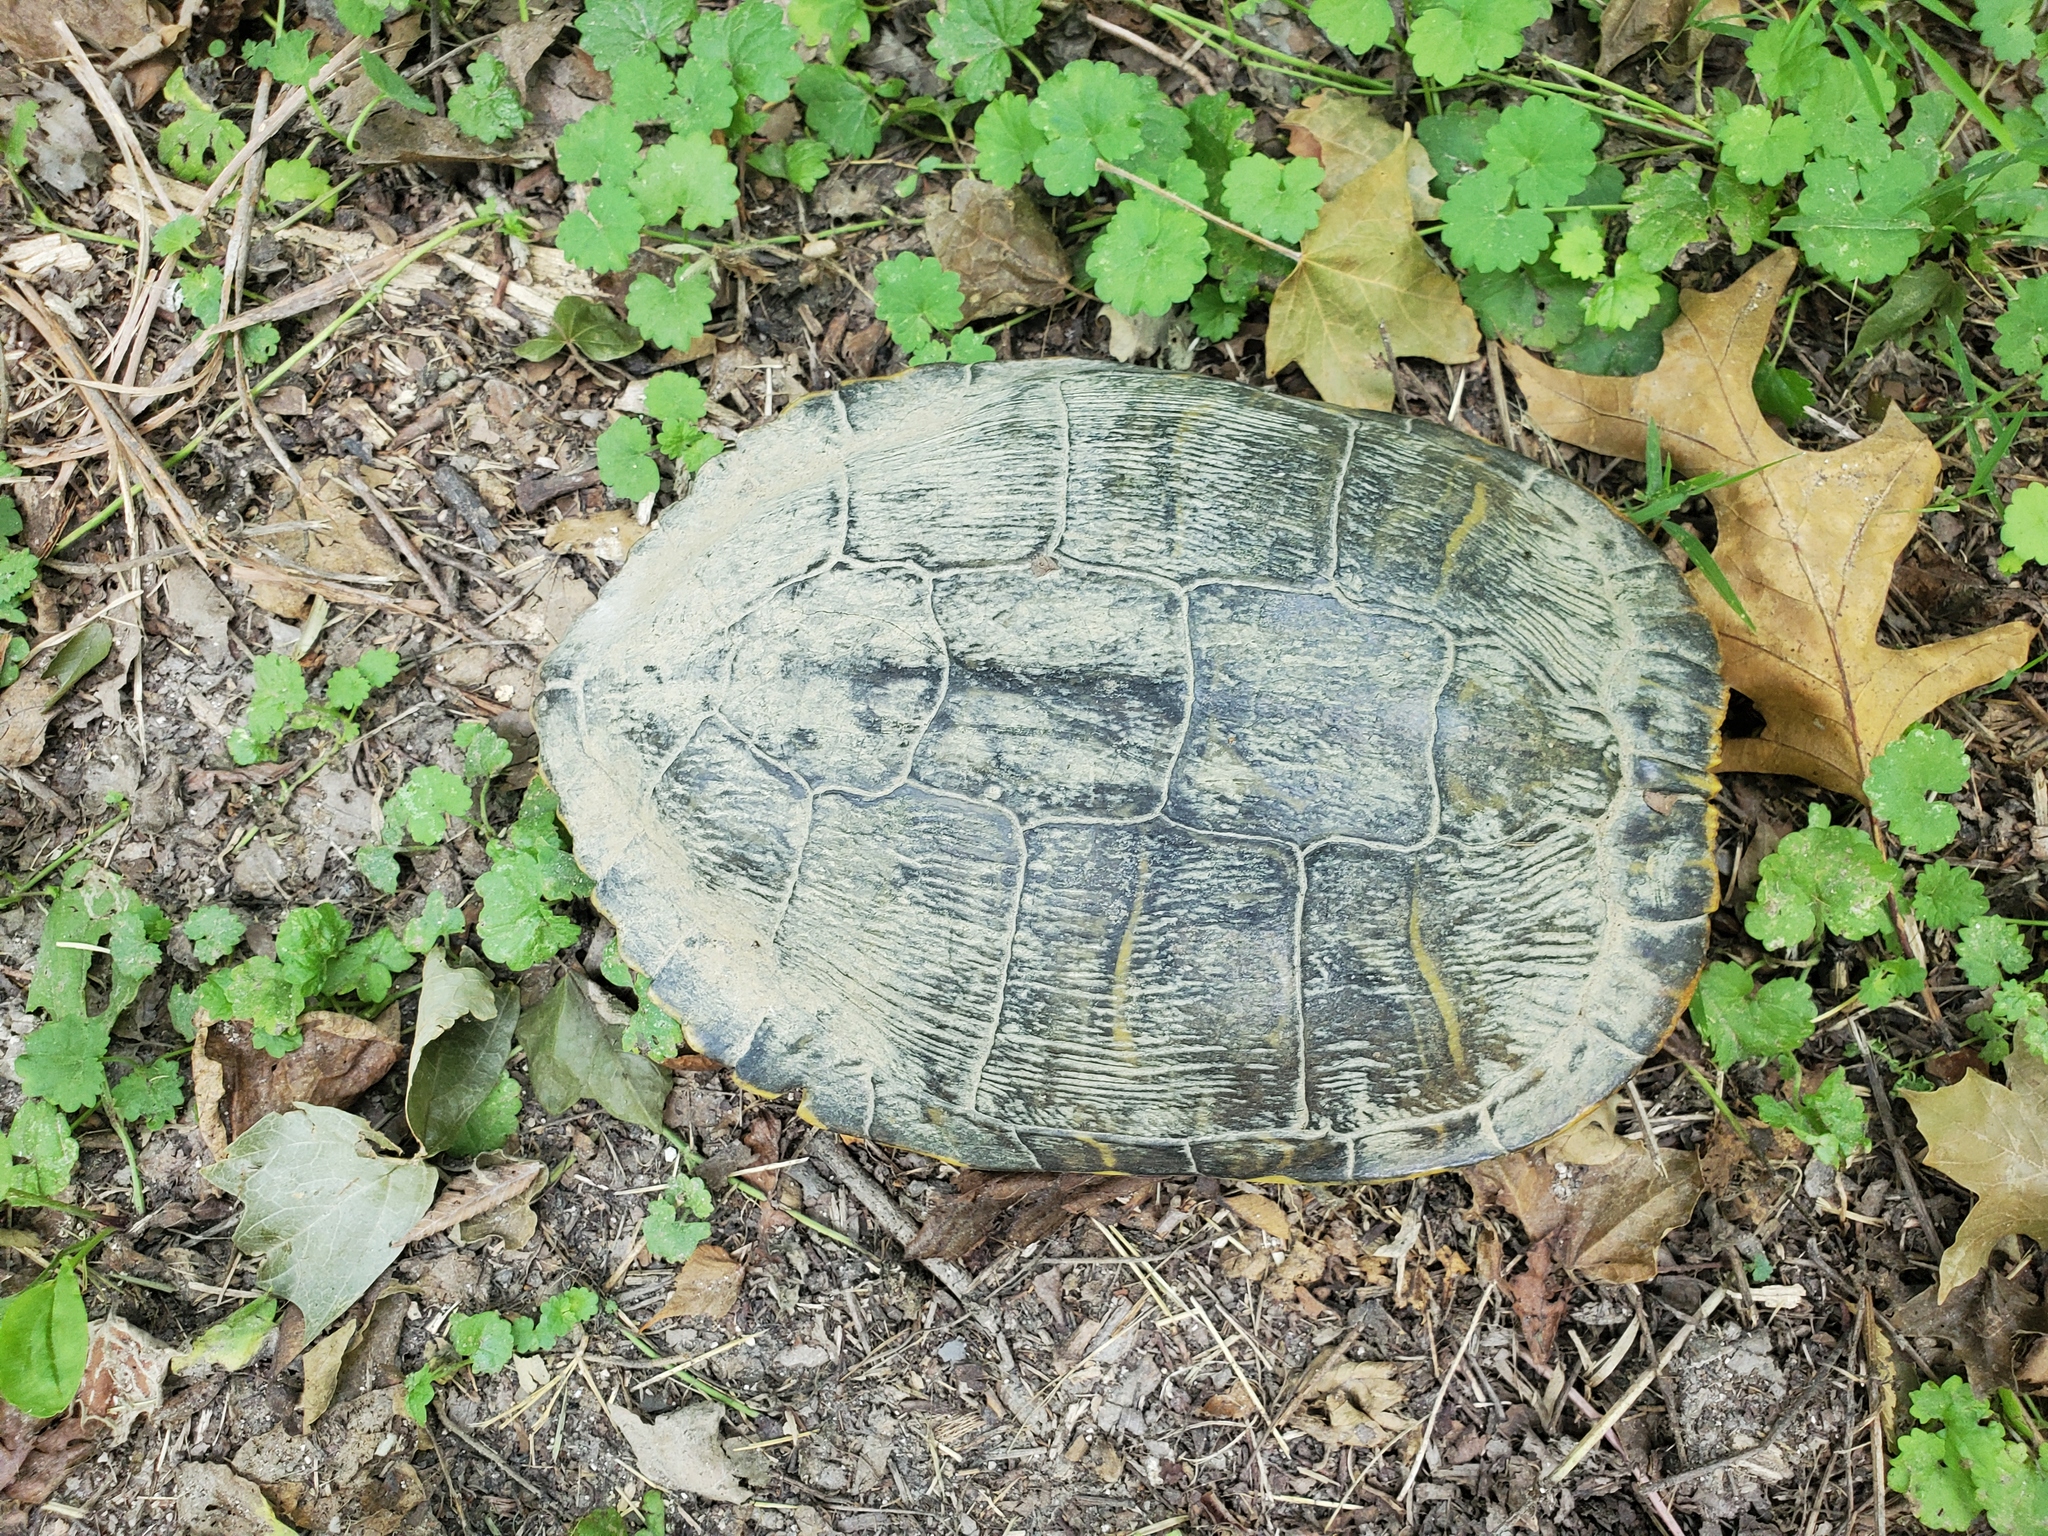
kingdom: Animalia
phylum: Chordata
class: Testudines
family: Emydidae
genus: Trachemys
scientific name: Trachemys scripta
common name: Slider
